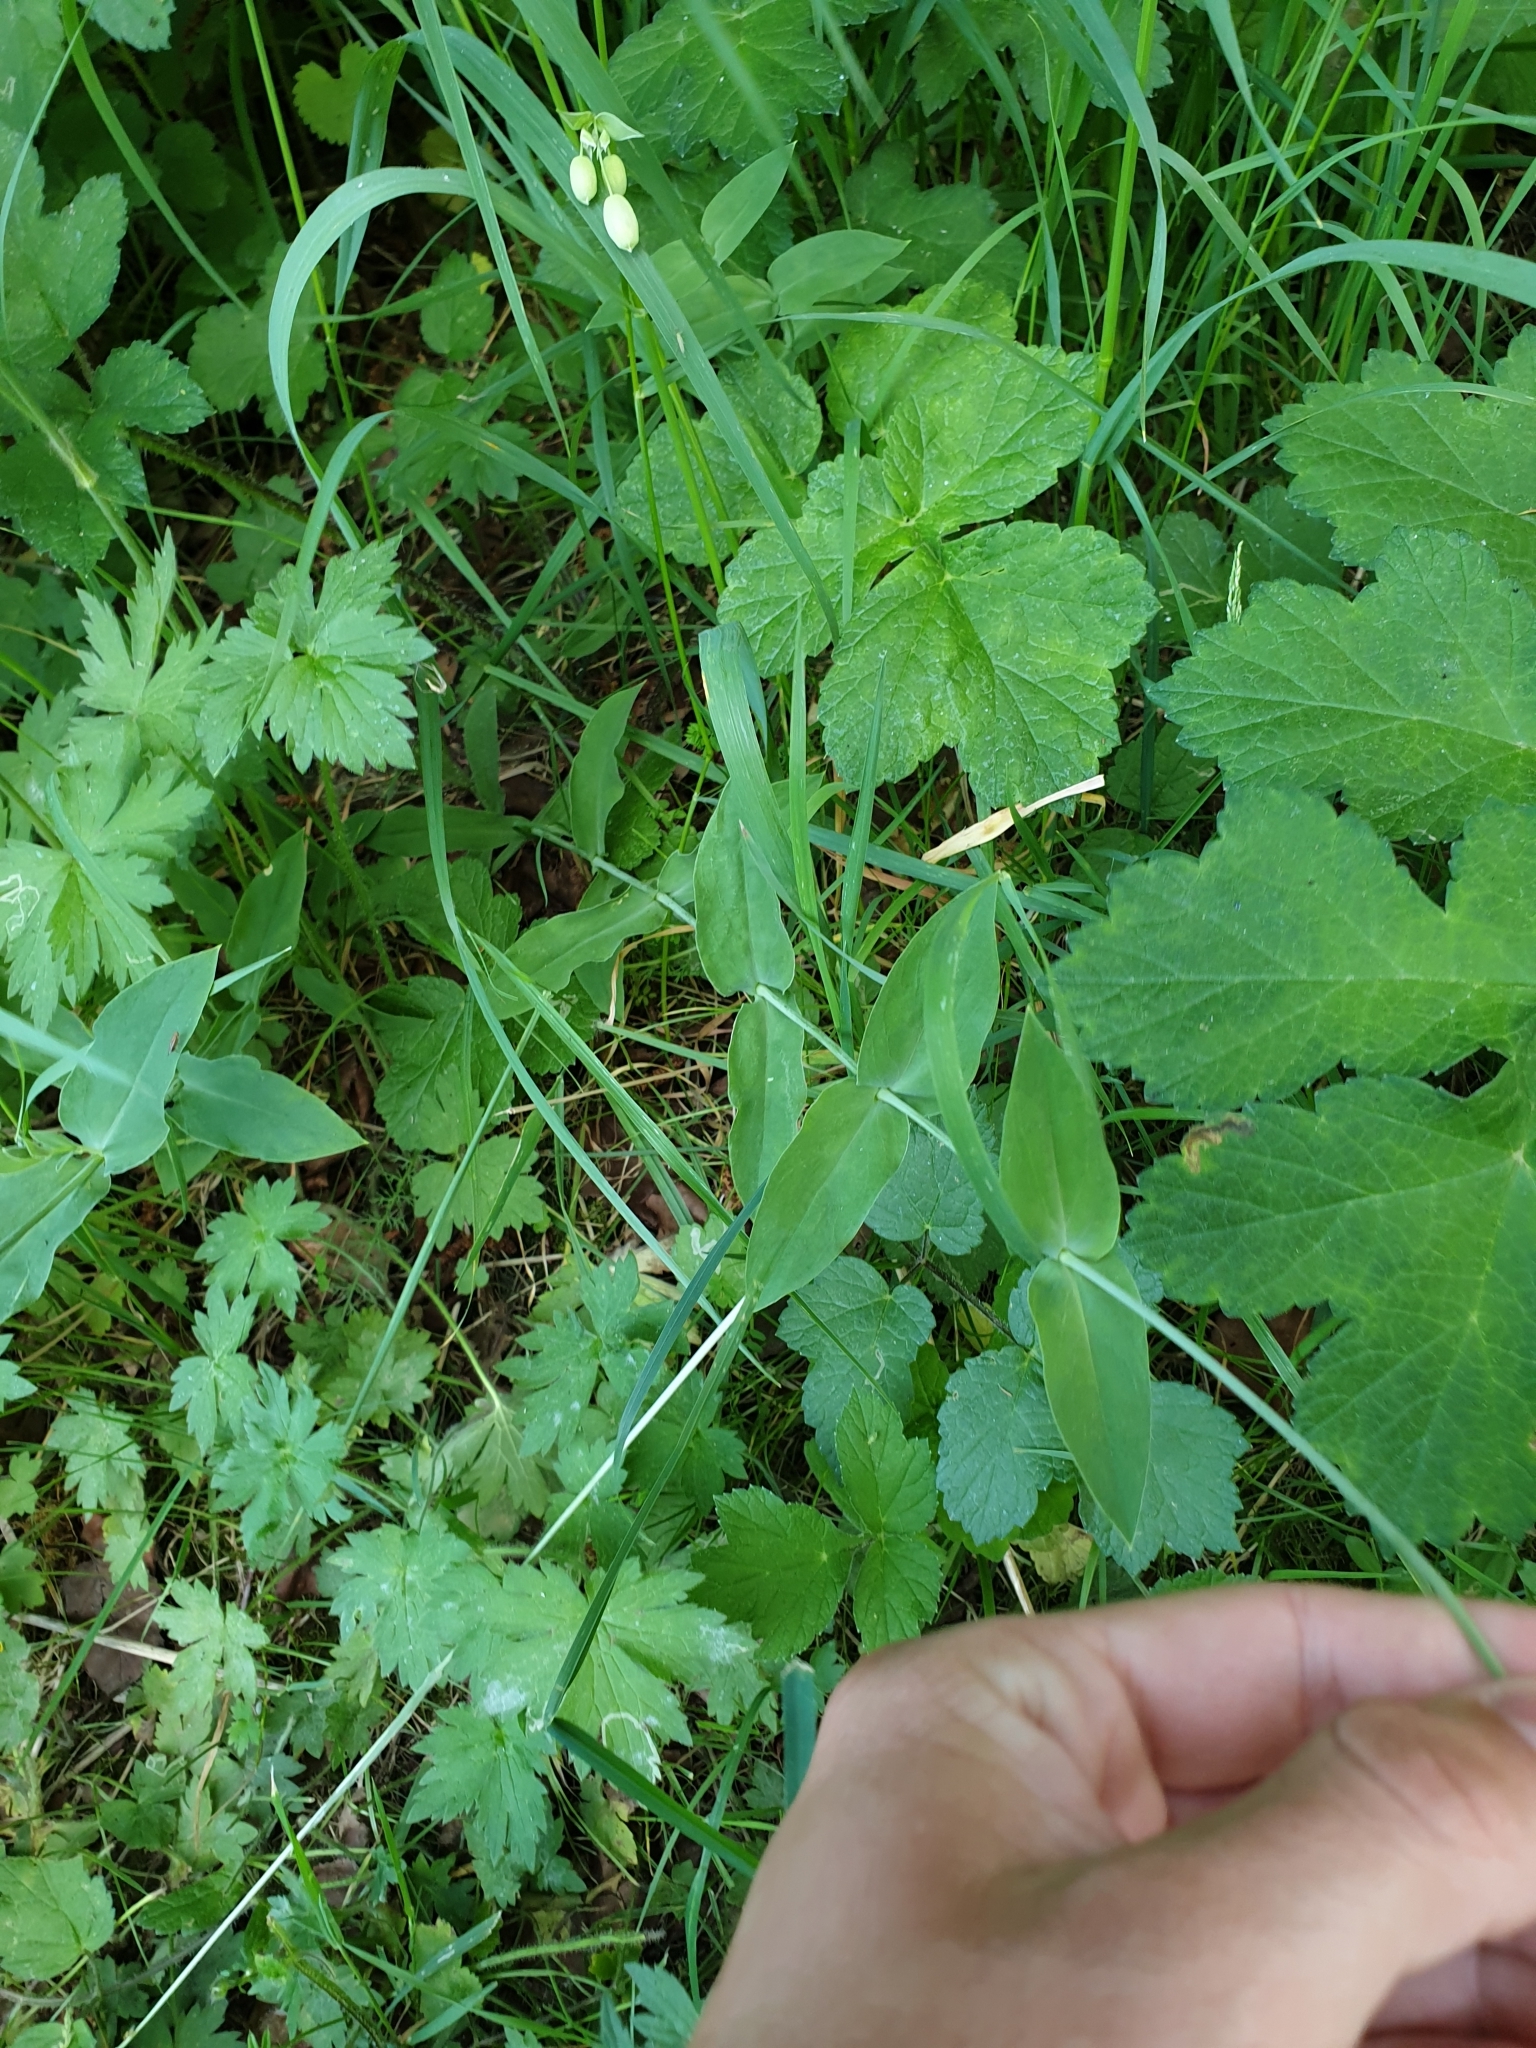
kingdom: Plantae
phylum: Tracheophyta
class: Magnoliopsida
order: Caryophyllales
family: Caryophyllaceae
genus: Silene
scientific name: Silene vulgaris
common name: Bladder campion
